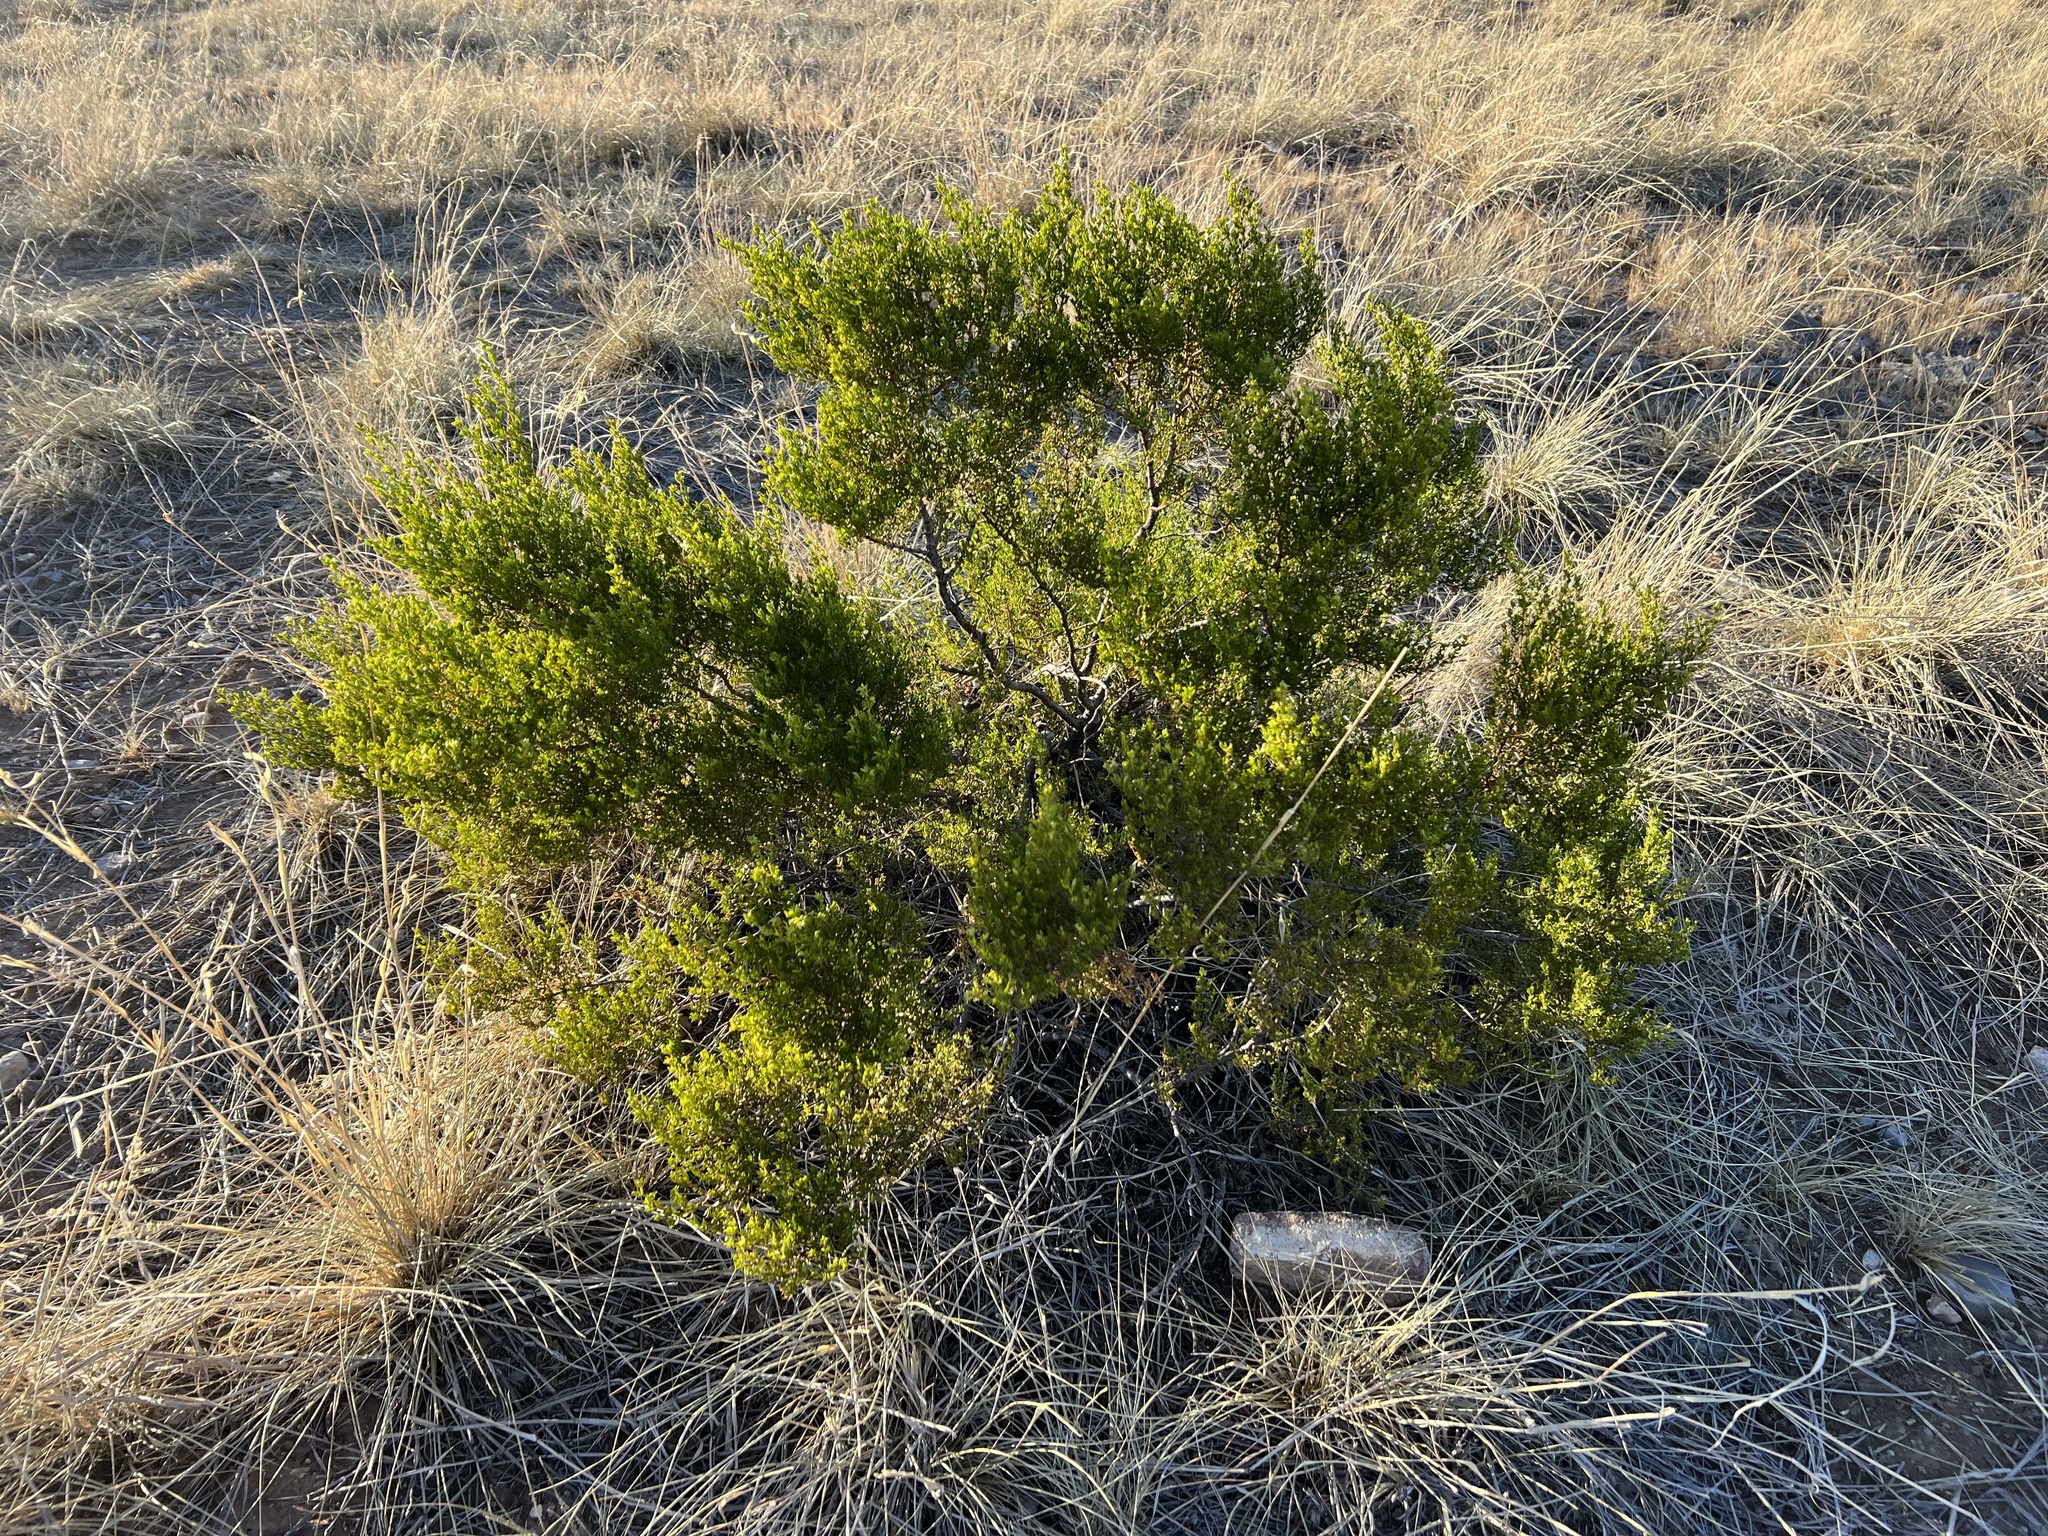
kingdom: Plantae
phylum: Tracheophyta
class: Magnoliopsida
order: Zygophyllales
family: Zygophyllaceae
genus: Larrea
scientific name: Larrea tridentata
